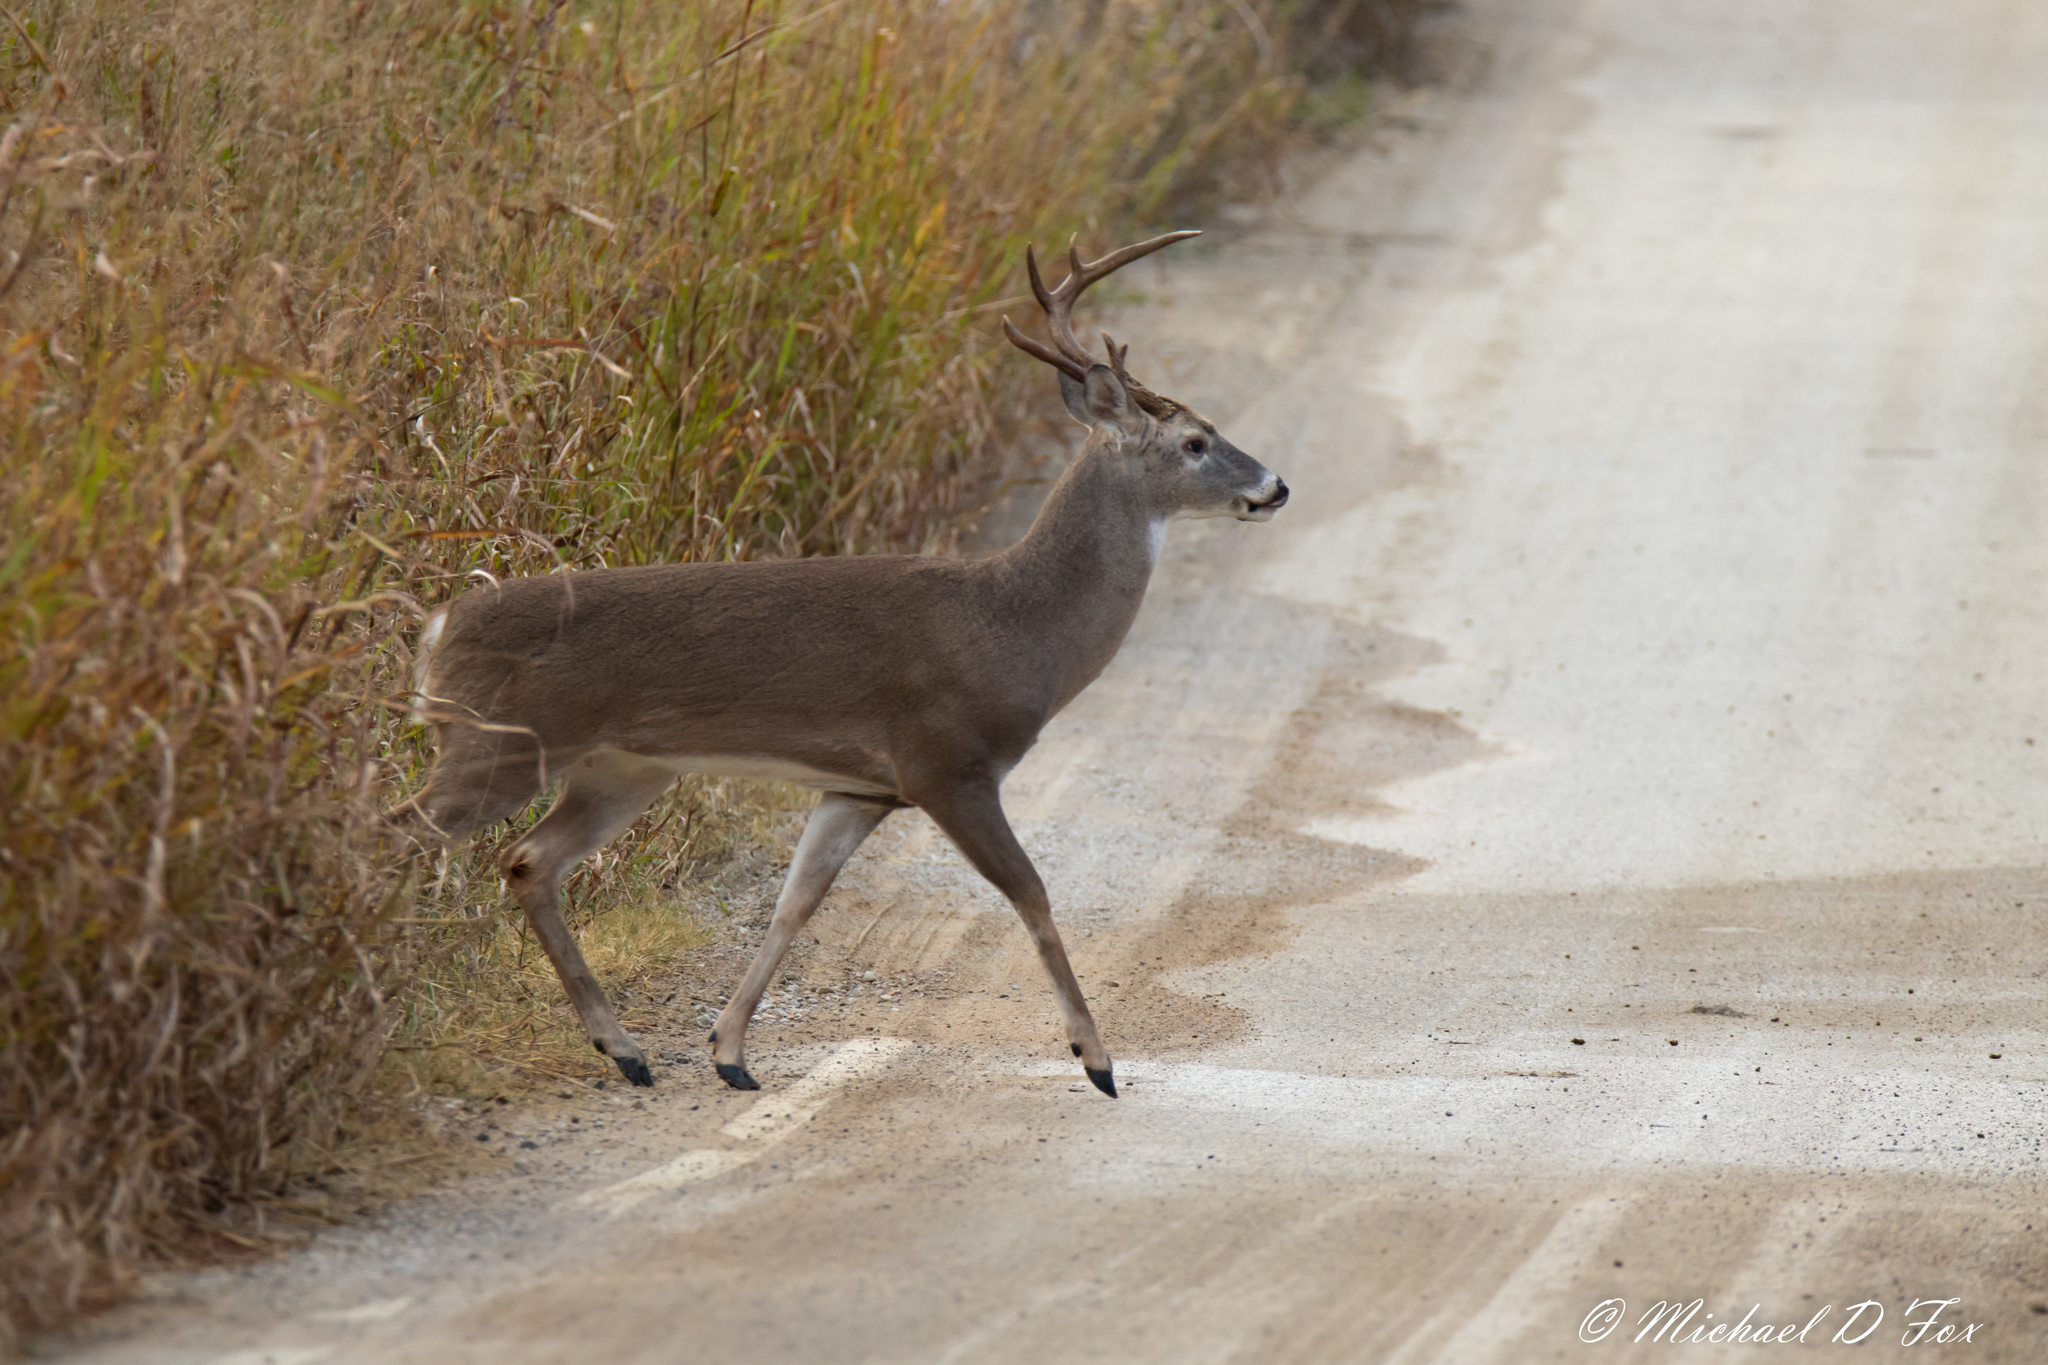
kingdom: Animalia
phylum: Chordata
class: Mammalia
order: Artiodactyla
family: Cervidae
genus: Odocoileus
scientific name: Odocoileus virginianus
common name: White-tailed deer
